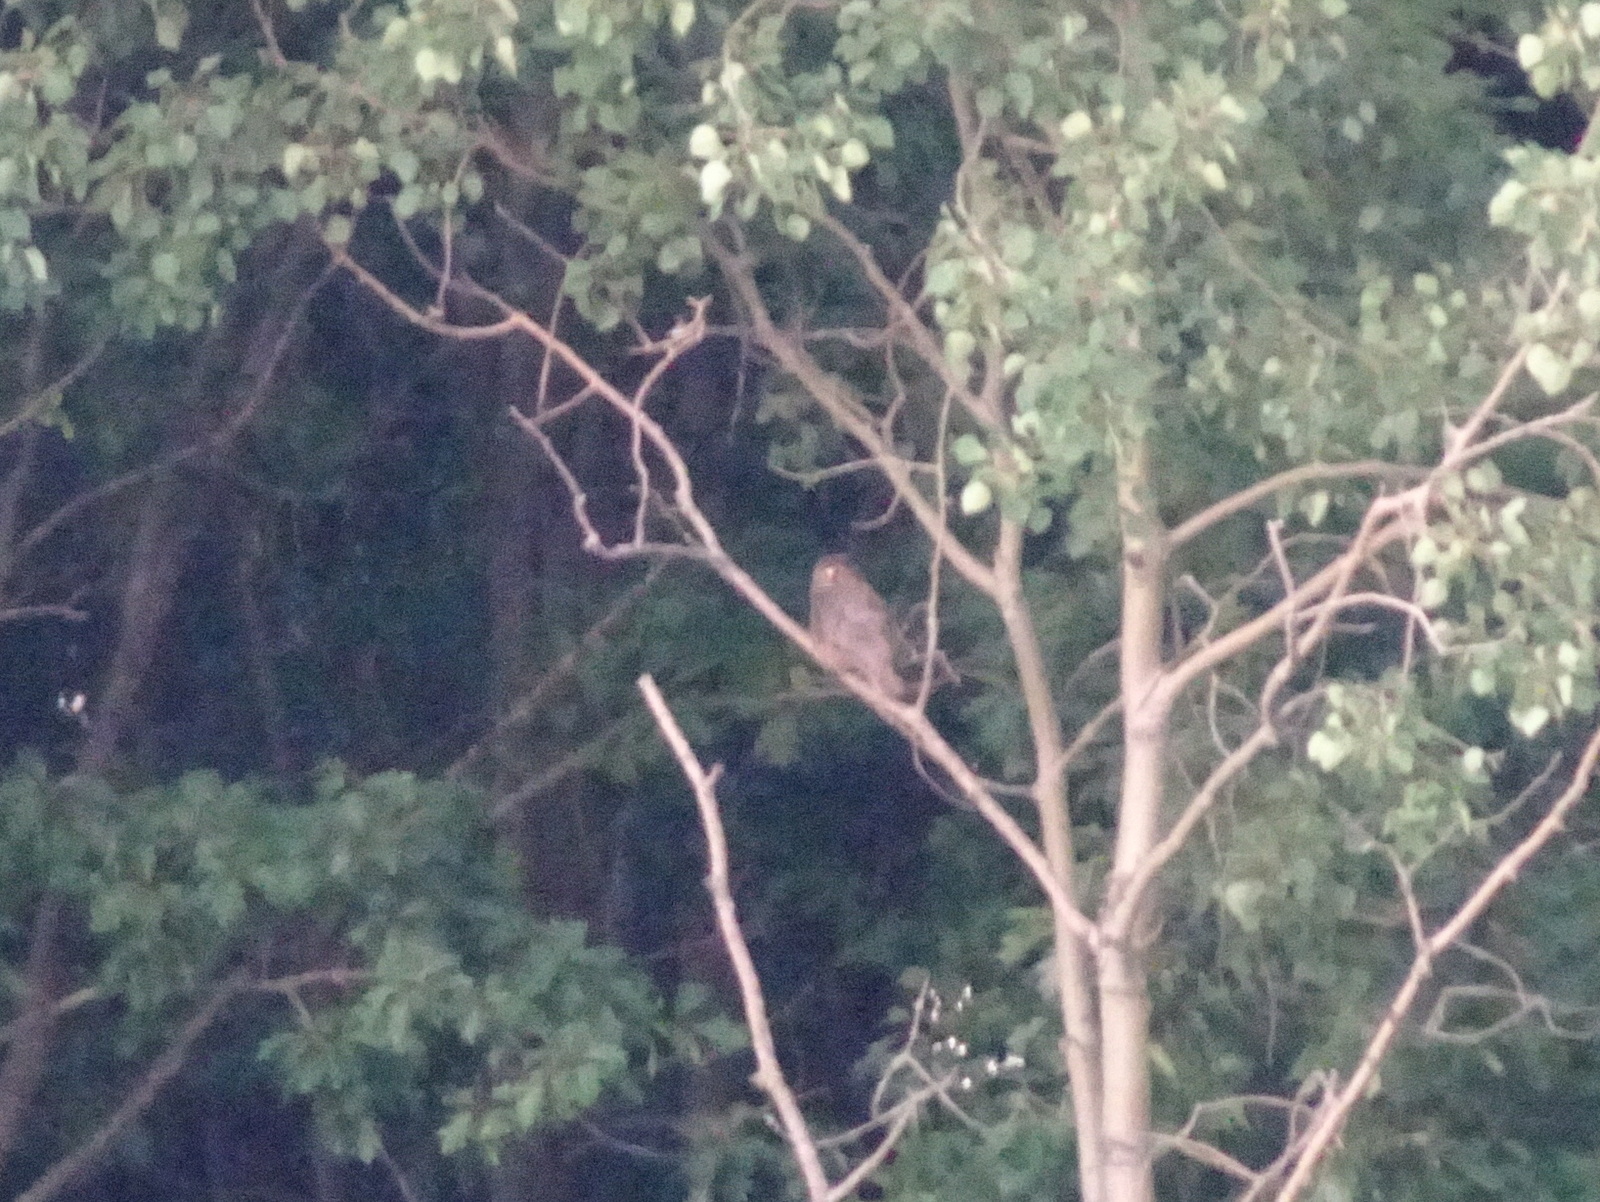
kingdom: Animalia
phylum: Chordata
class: Aves
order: Strigiformes
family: Strigidae
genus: Bubo
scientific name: Bubo virginianus
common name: Great horned owl
